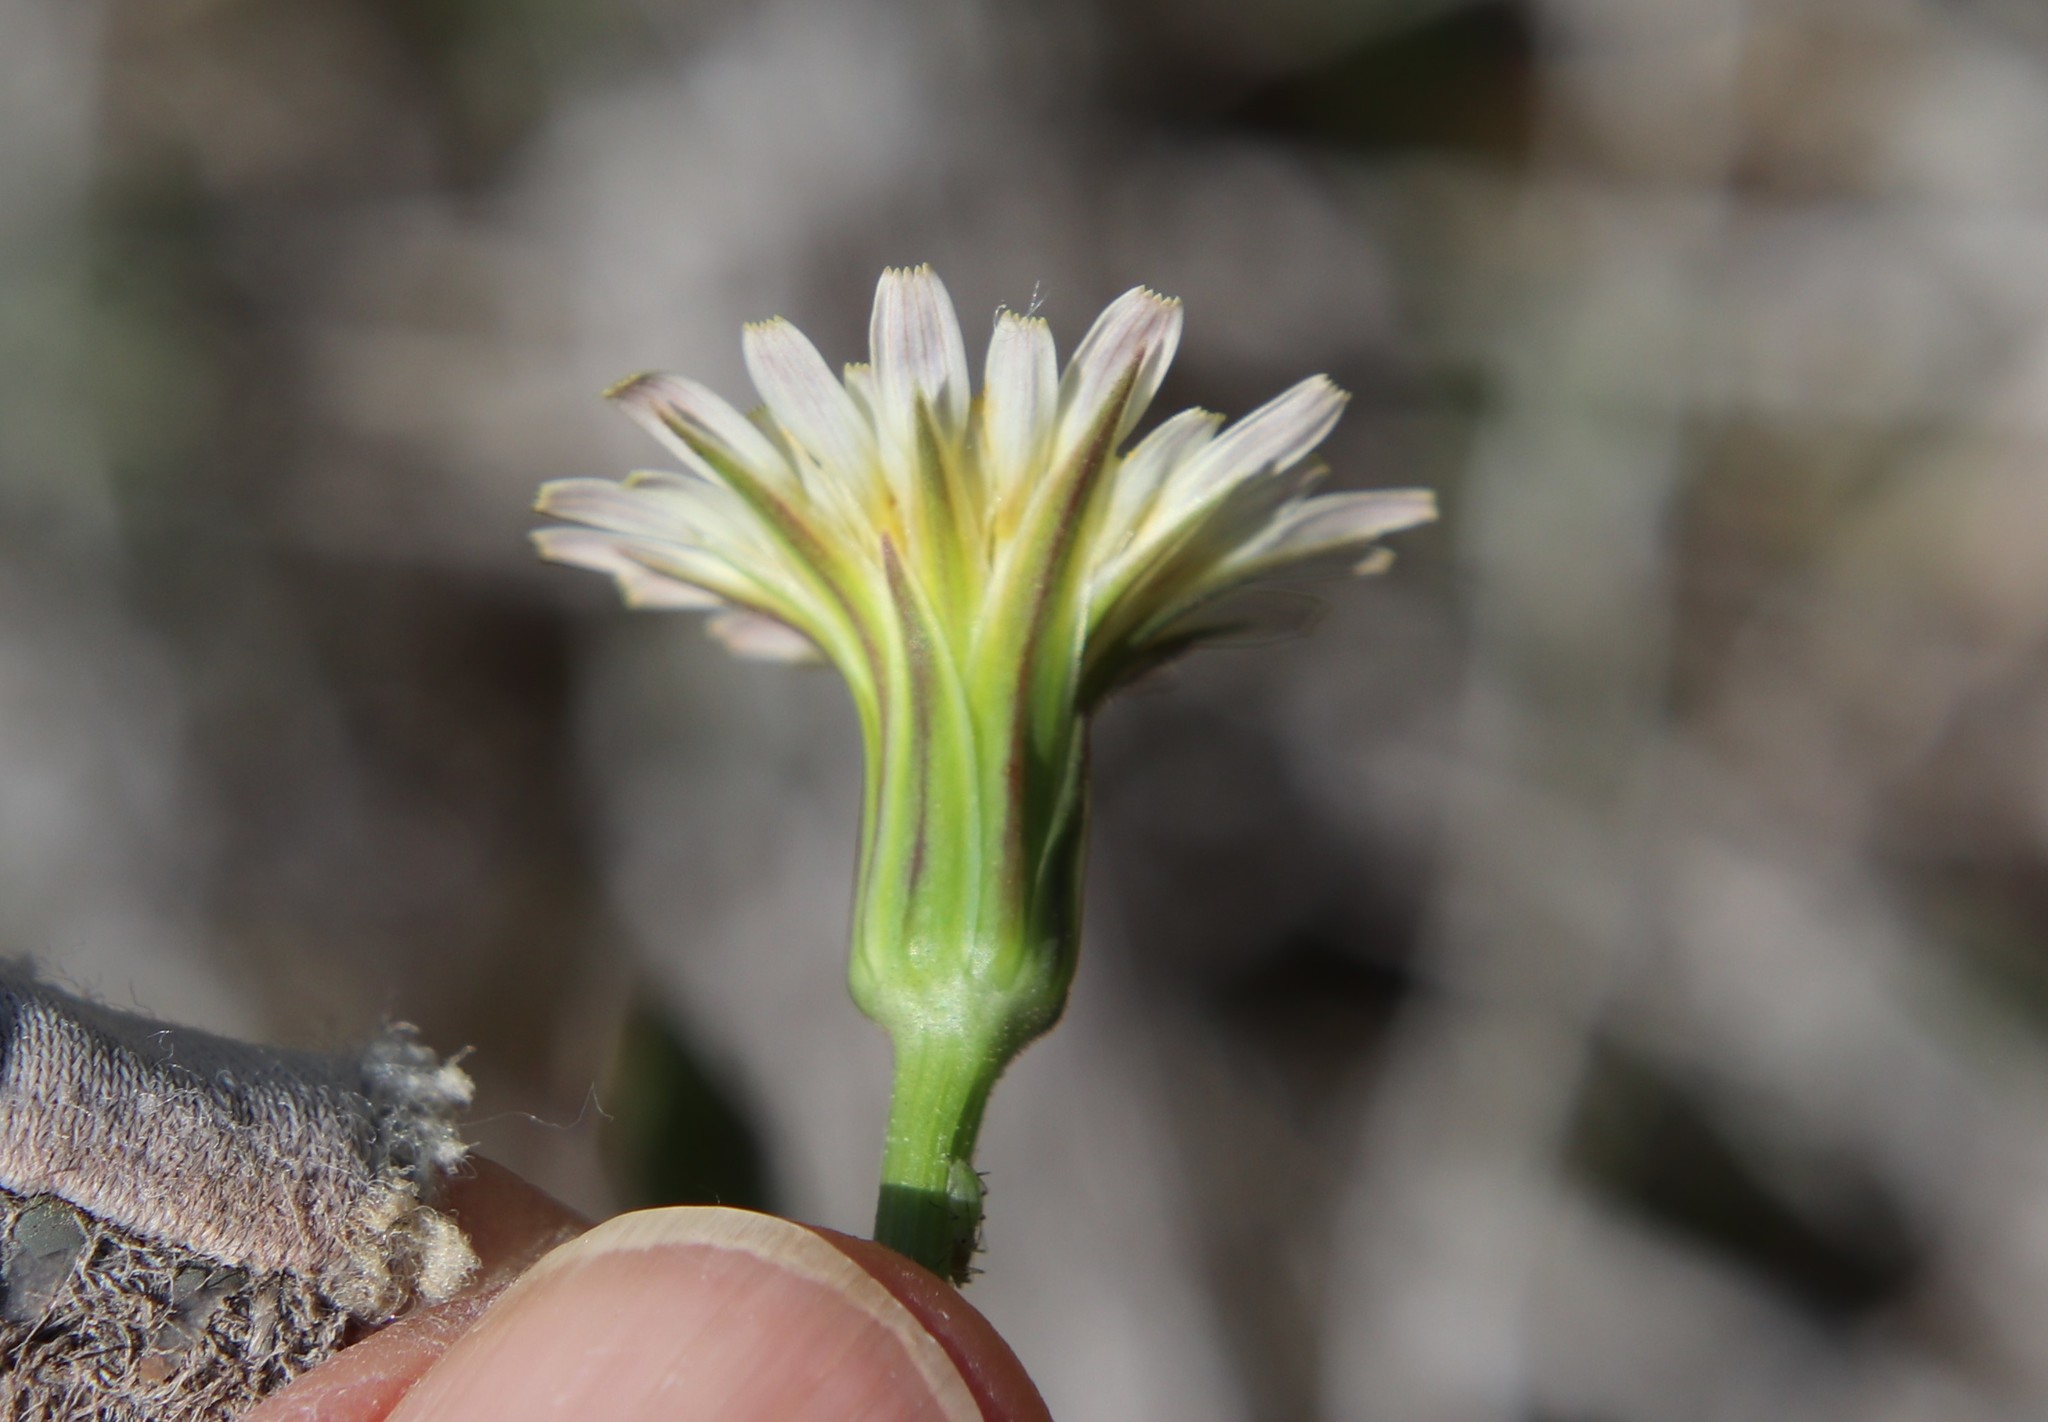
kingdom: Plantae
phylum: Tracheophyta
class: Magnoliopsida
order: Asterales
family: Asteraceae
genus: Microseris
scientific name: Microseris lindleyi
